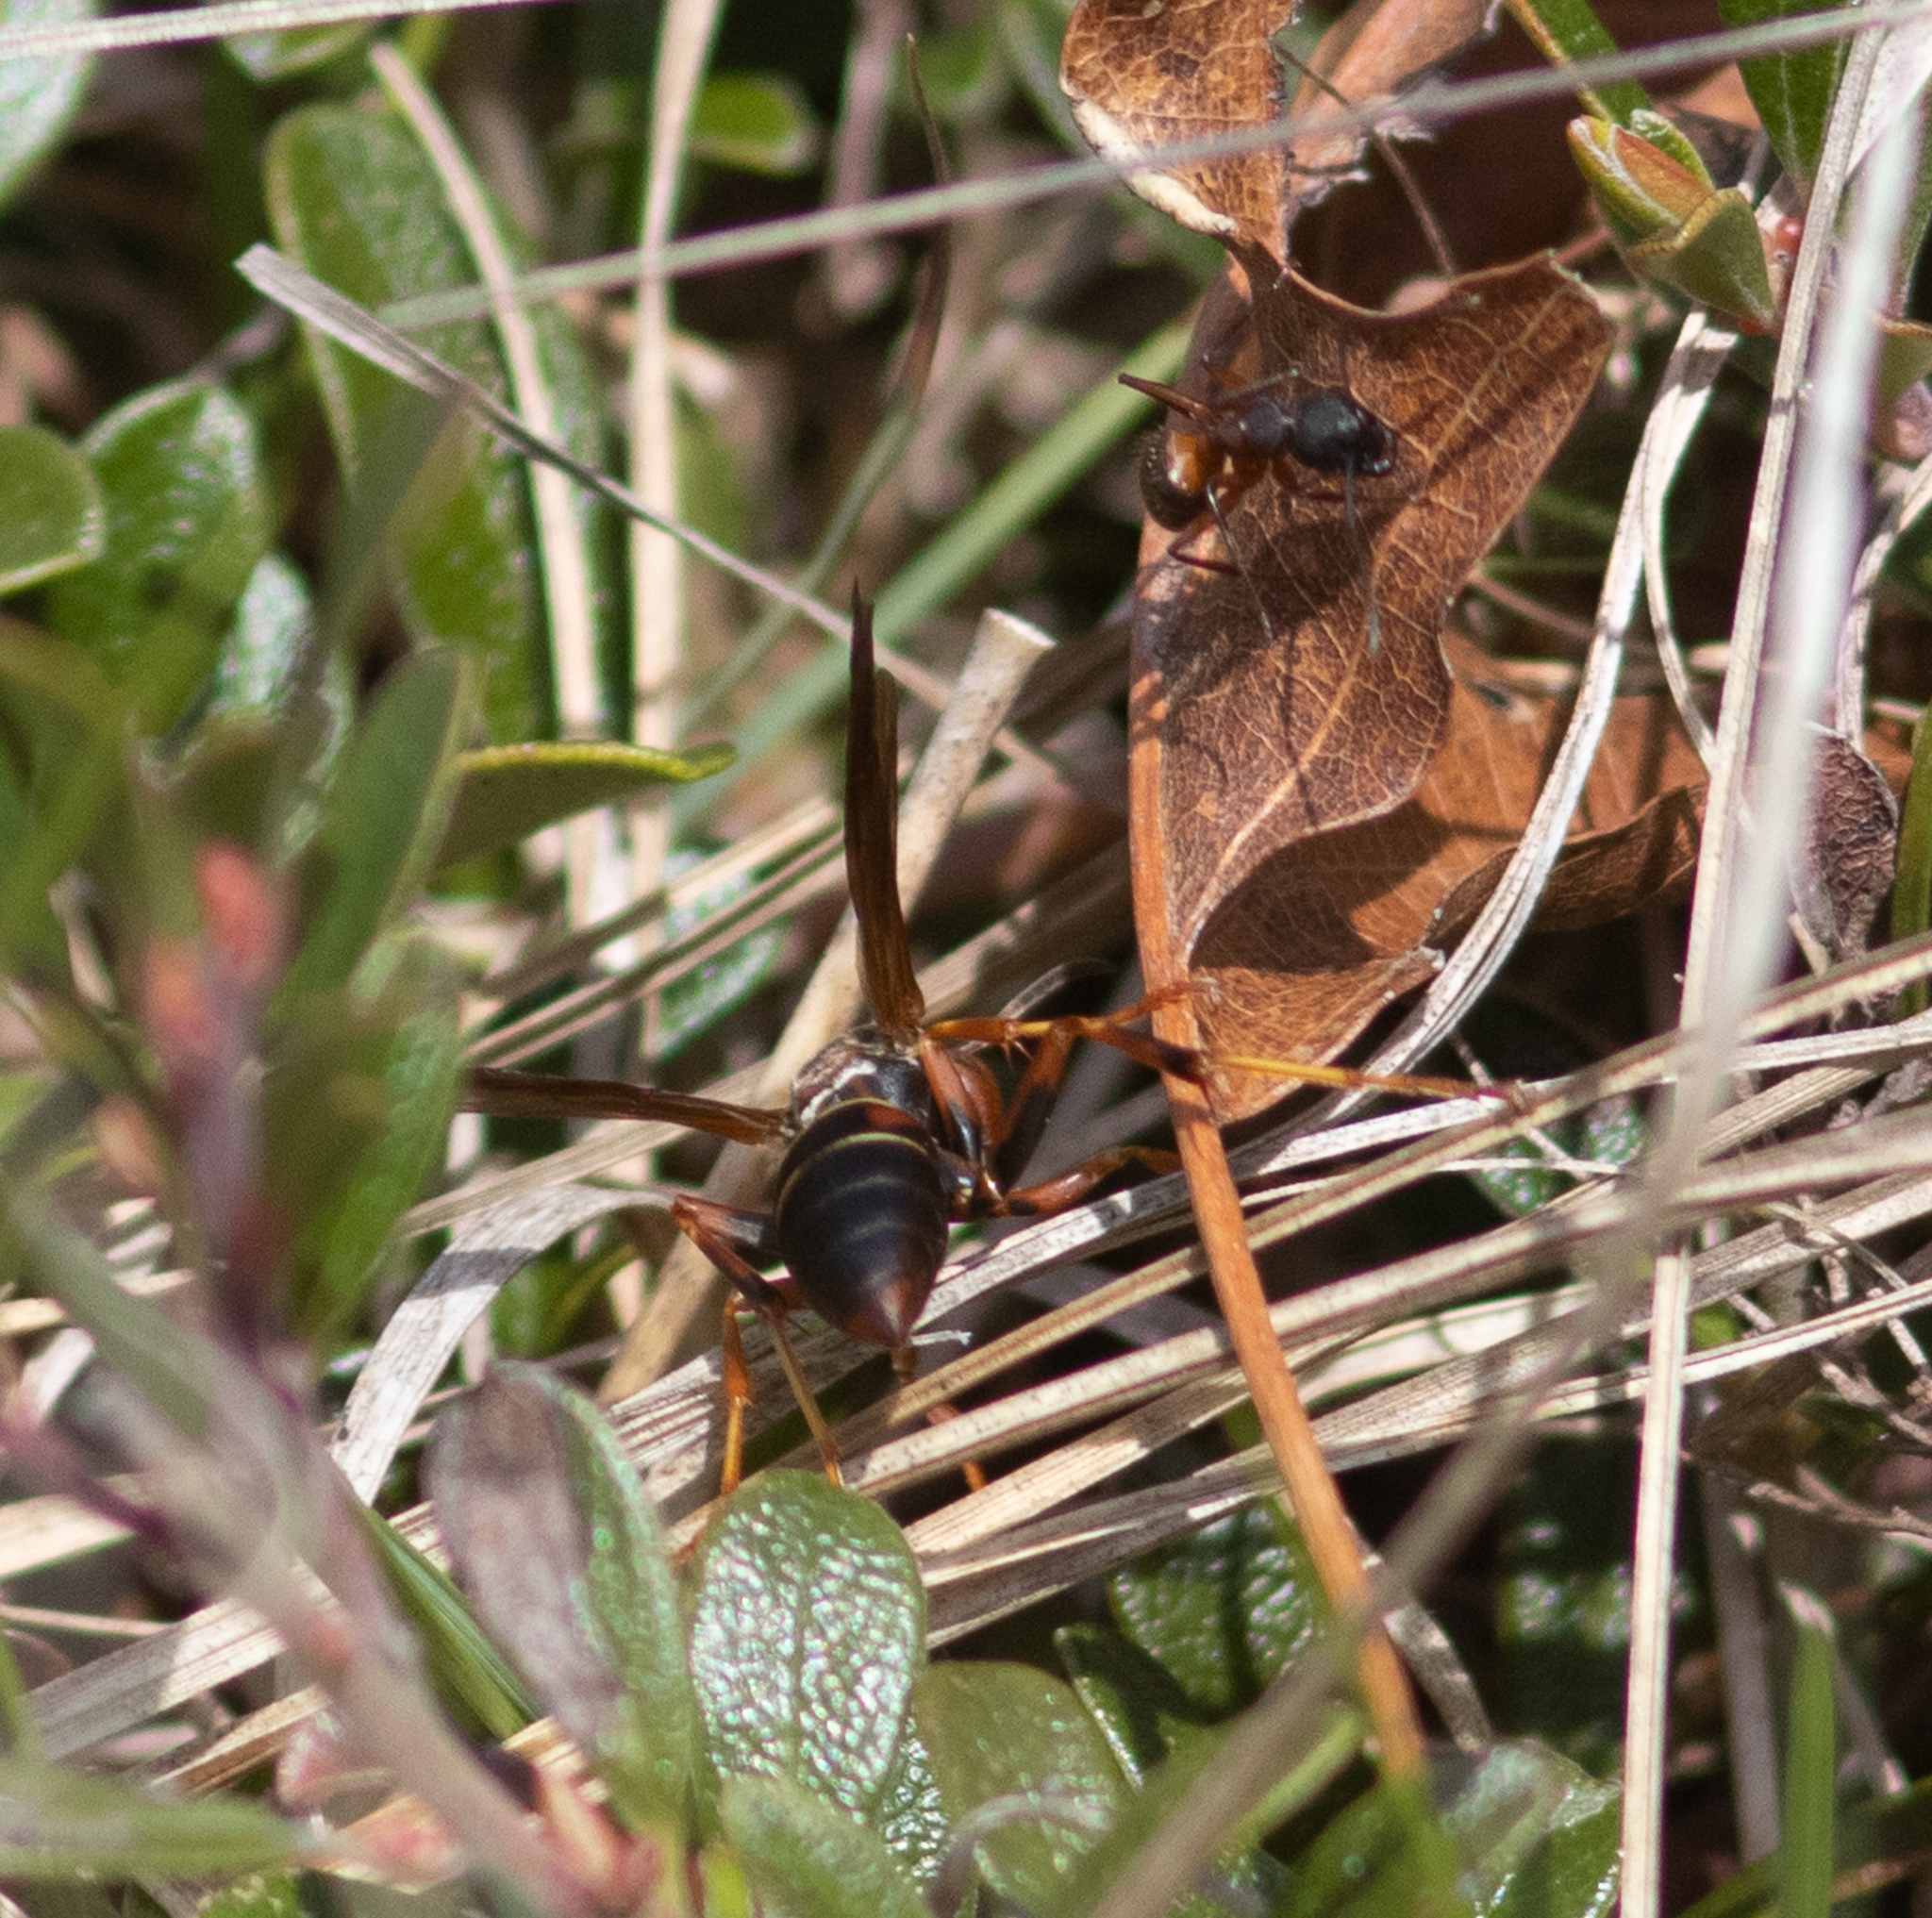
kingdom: Animalia
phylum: Arthropoda
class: Insecta
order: Hymenoptera
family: Eumenidae
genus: Polistes
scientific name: Polistes fuscatus
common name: Dark paper wasp
